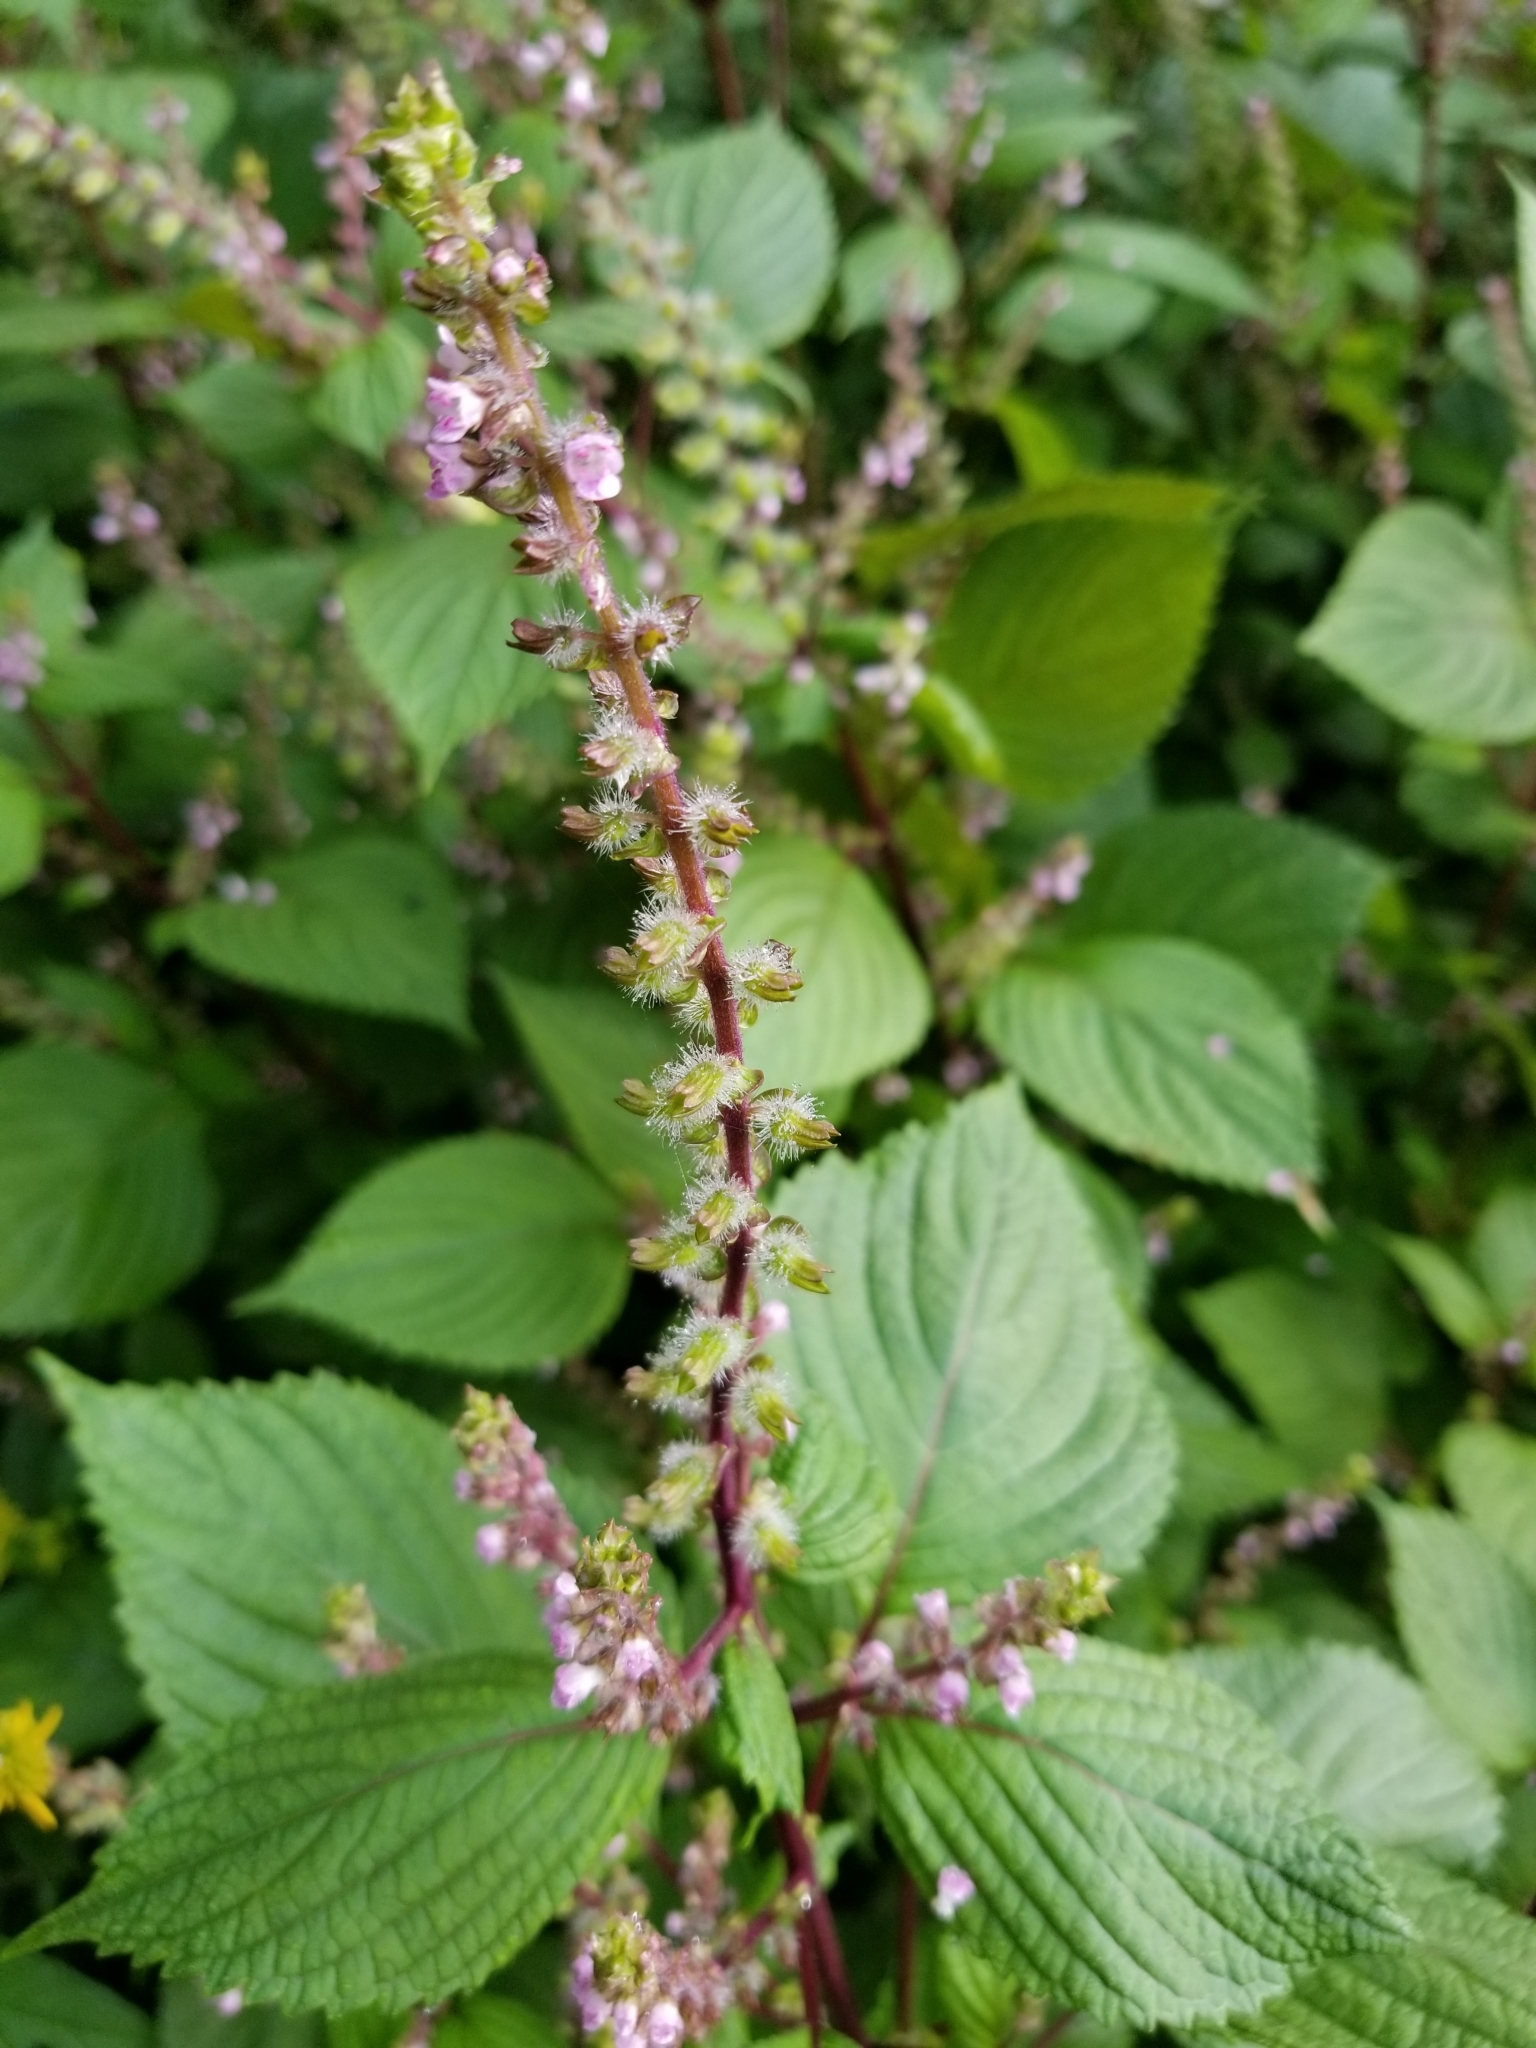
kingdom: Plantae
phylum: Tracheophyta
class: Magnoliopsida
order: Lamiales
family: Lamiaceae
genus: Perilla
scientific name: Perilla frutescens
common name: Perilla
